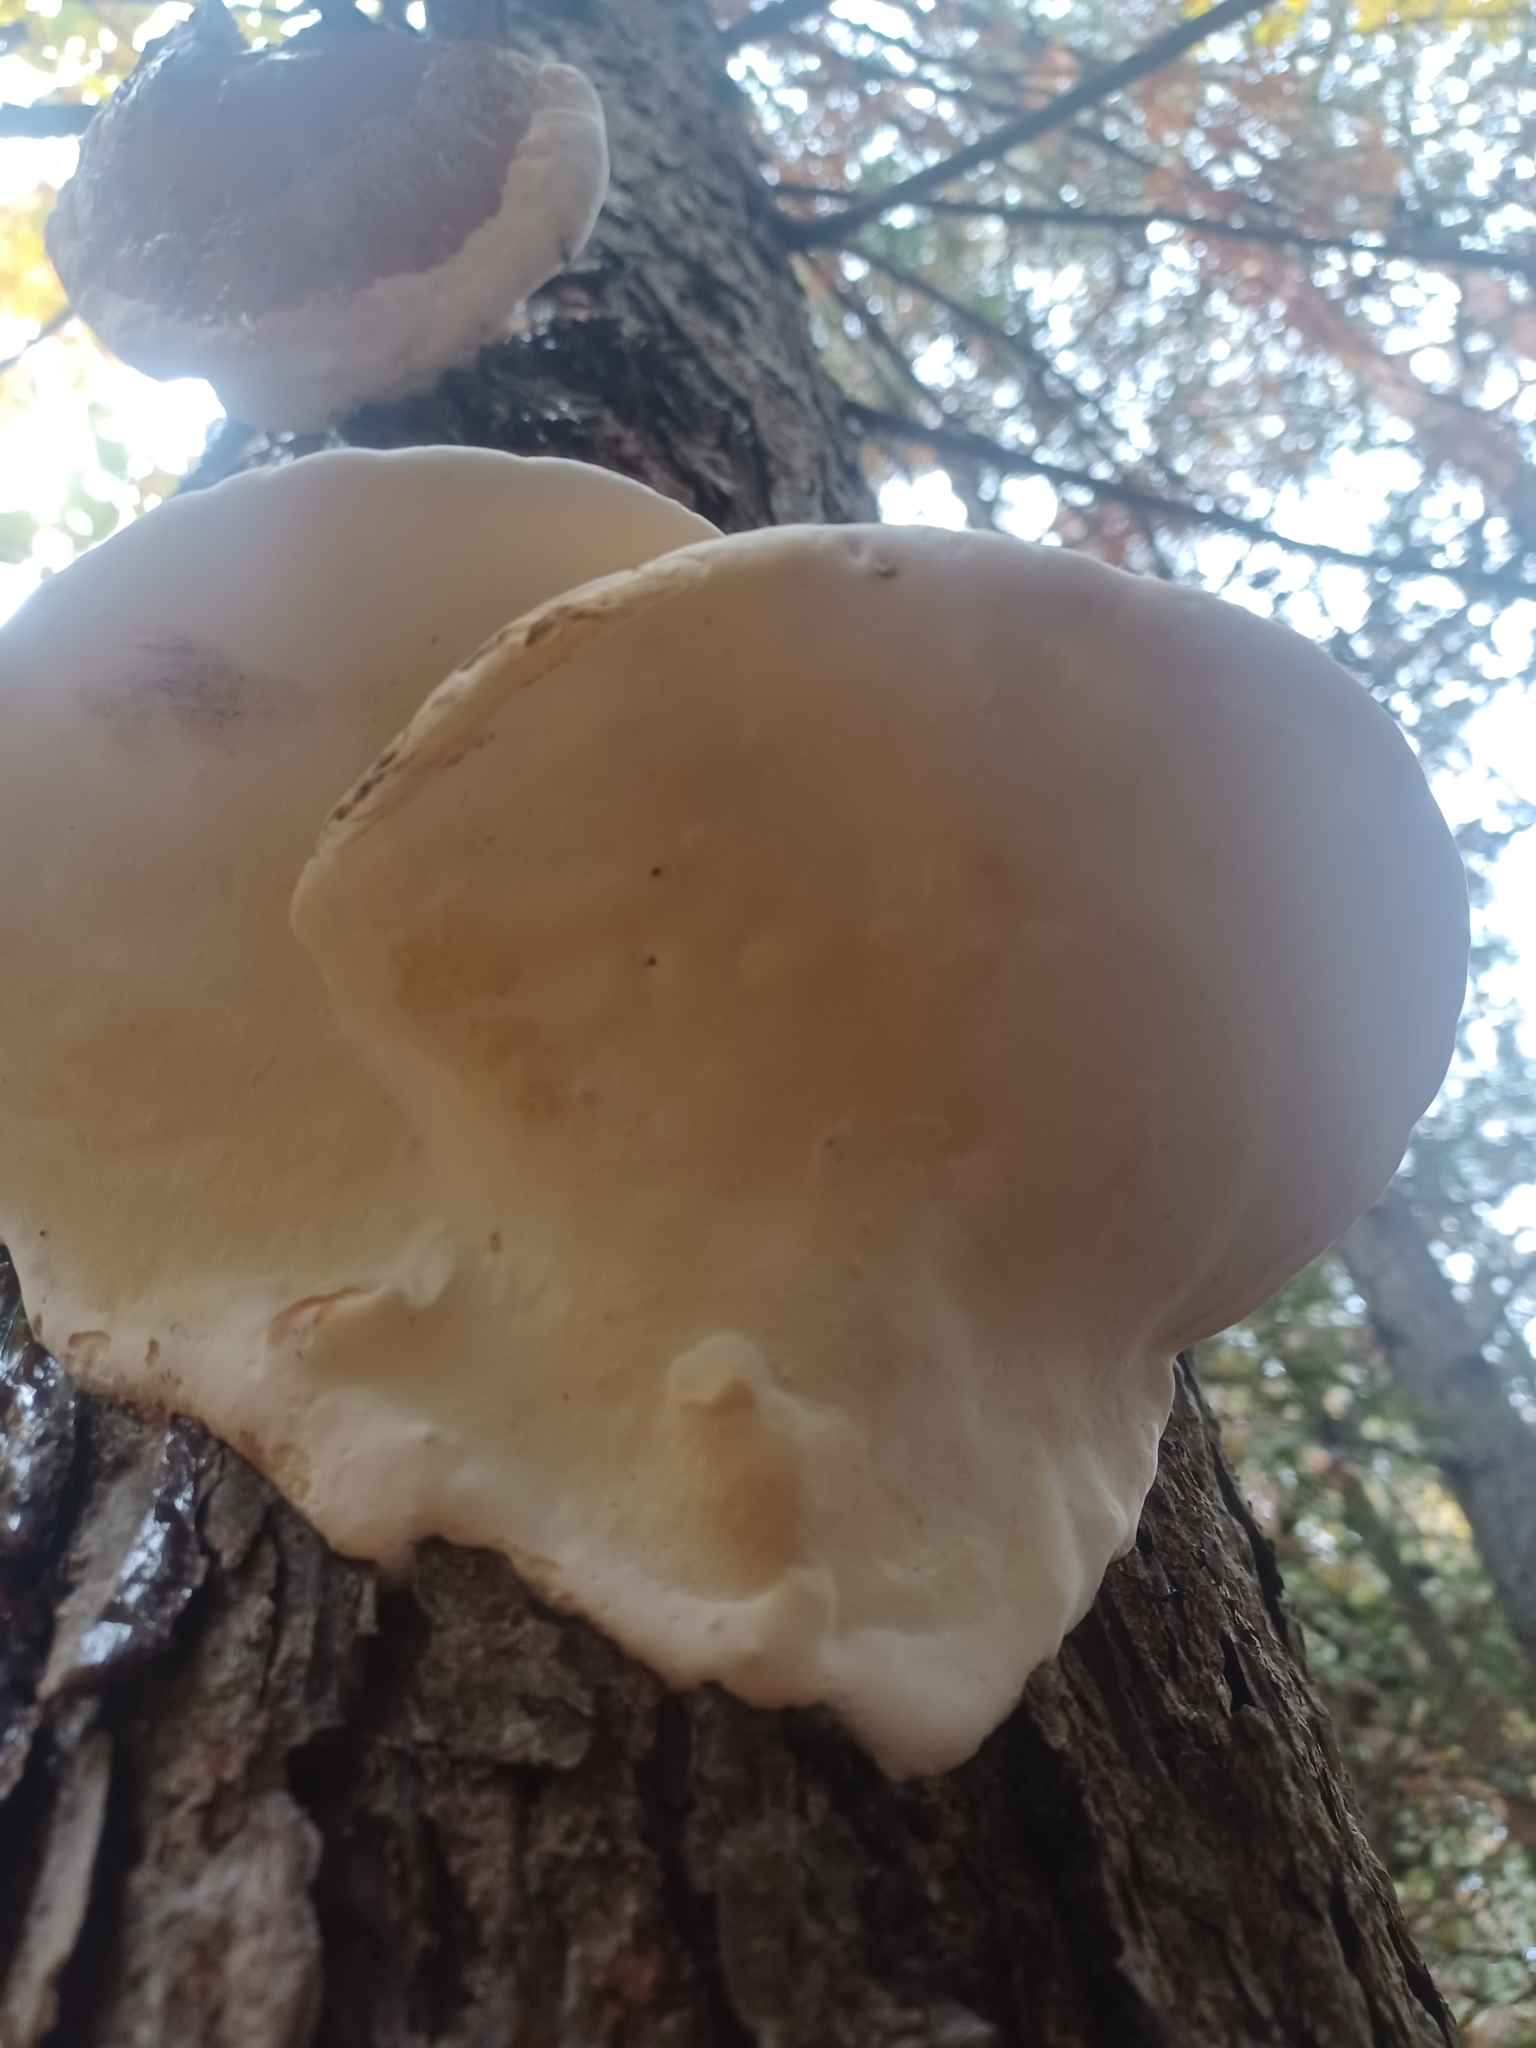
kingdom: Fungi
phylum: Basidiomycota
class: Agaricomycetes
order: Polyporales
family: Fomitopsidaceae
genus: Fomitopsis
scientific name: Fomitopsis
